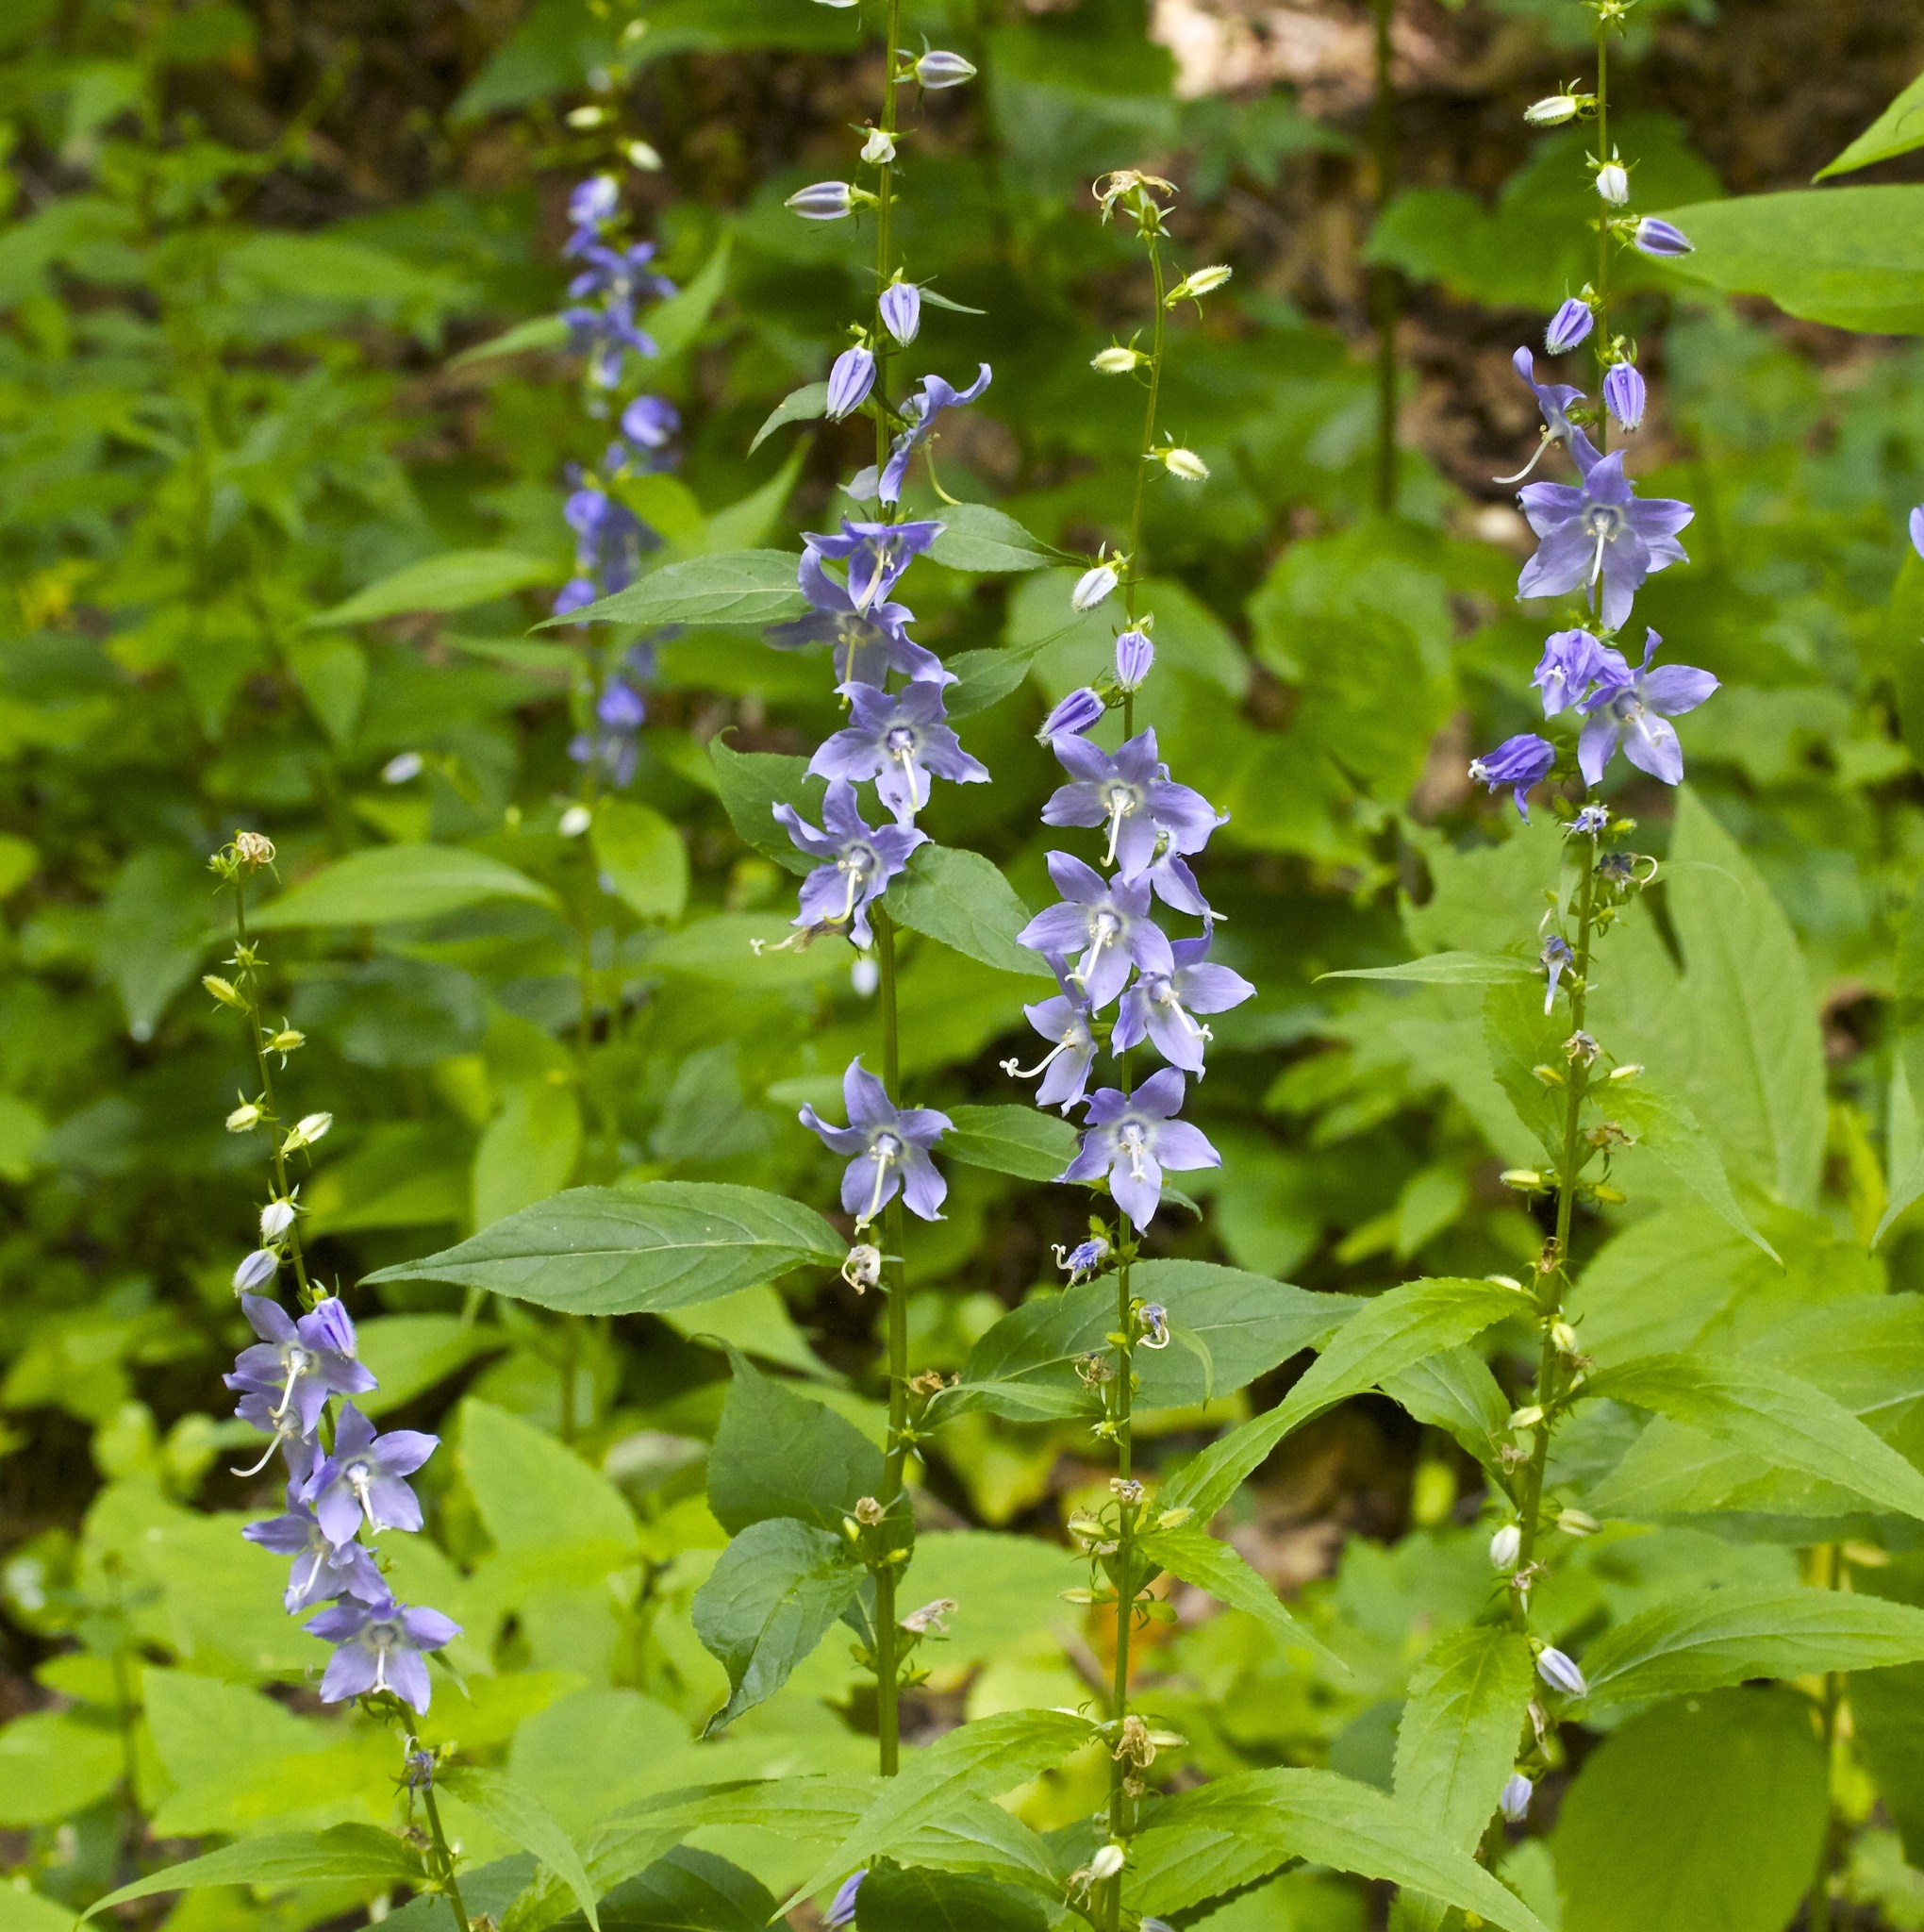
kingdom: Plantae
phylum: Tracheophyta
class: Magnoliopsida
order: Asterales
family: Campanulaceae
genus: Campanulastrum
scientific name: Campanulastrum americanum
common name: American bellflower
